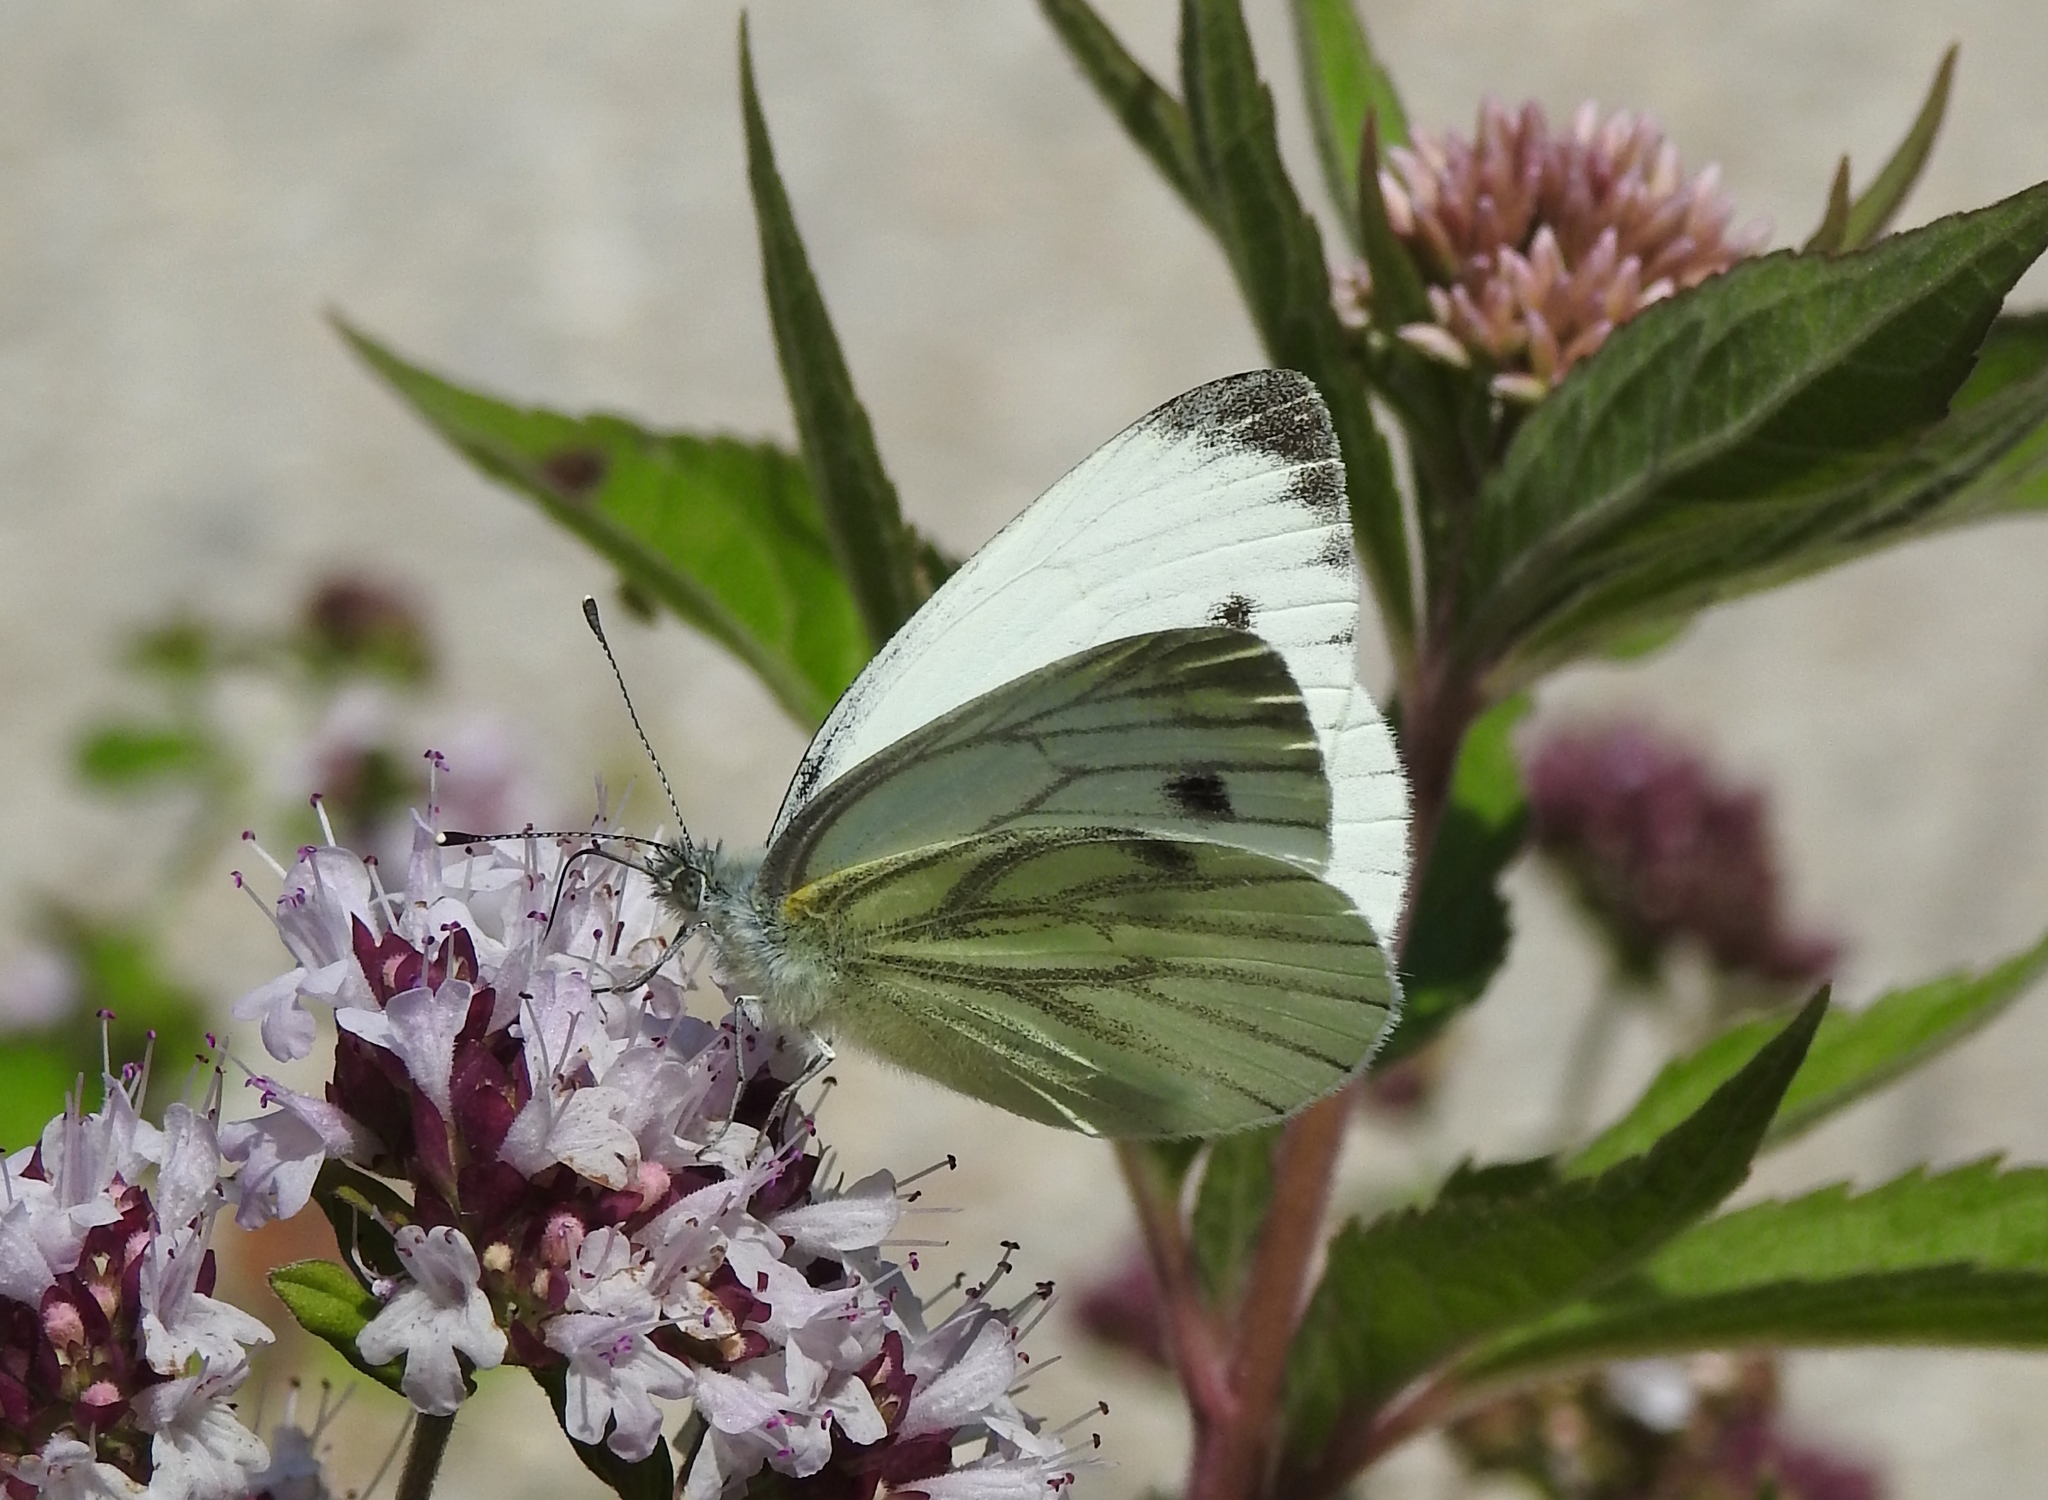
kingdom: Animalia
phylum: Arthropoda
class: Insecta
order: Lepidoptera
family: Pieridae
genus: Pieris
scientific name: Pieris napi
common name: Green-veined white
